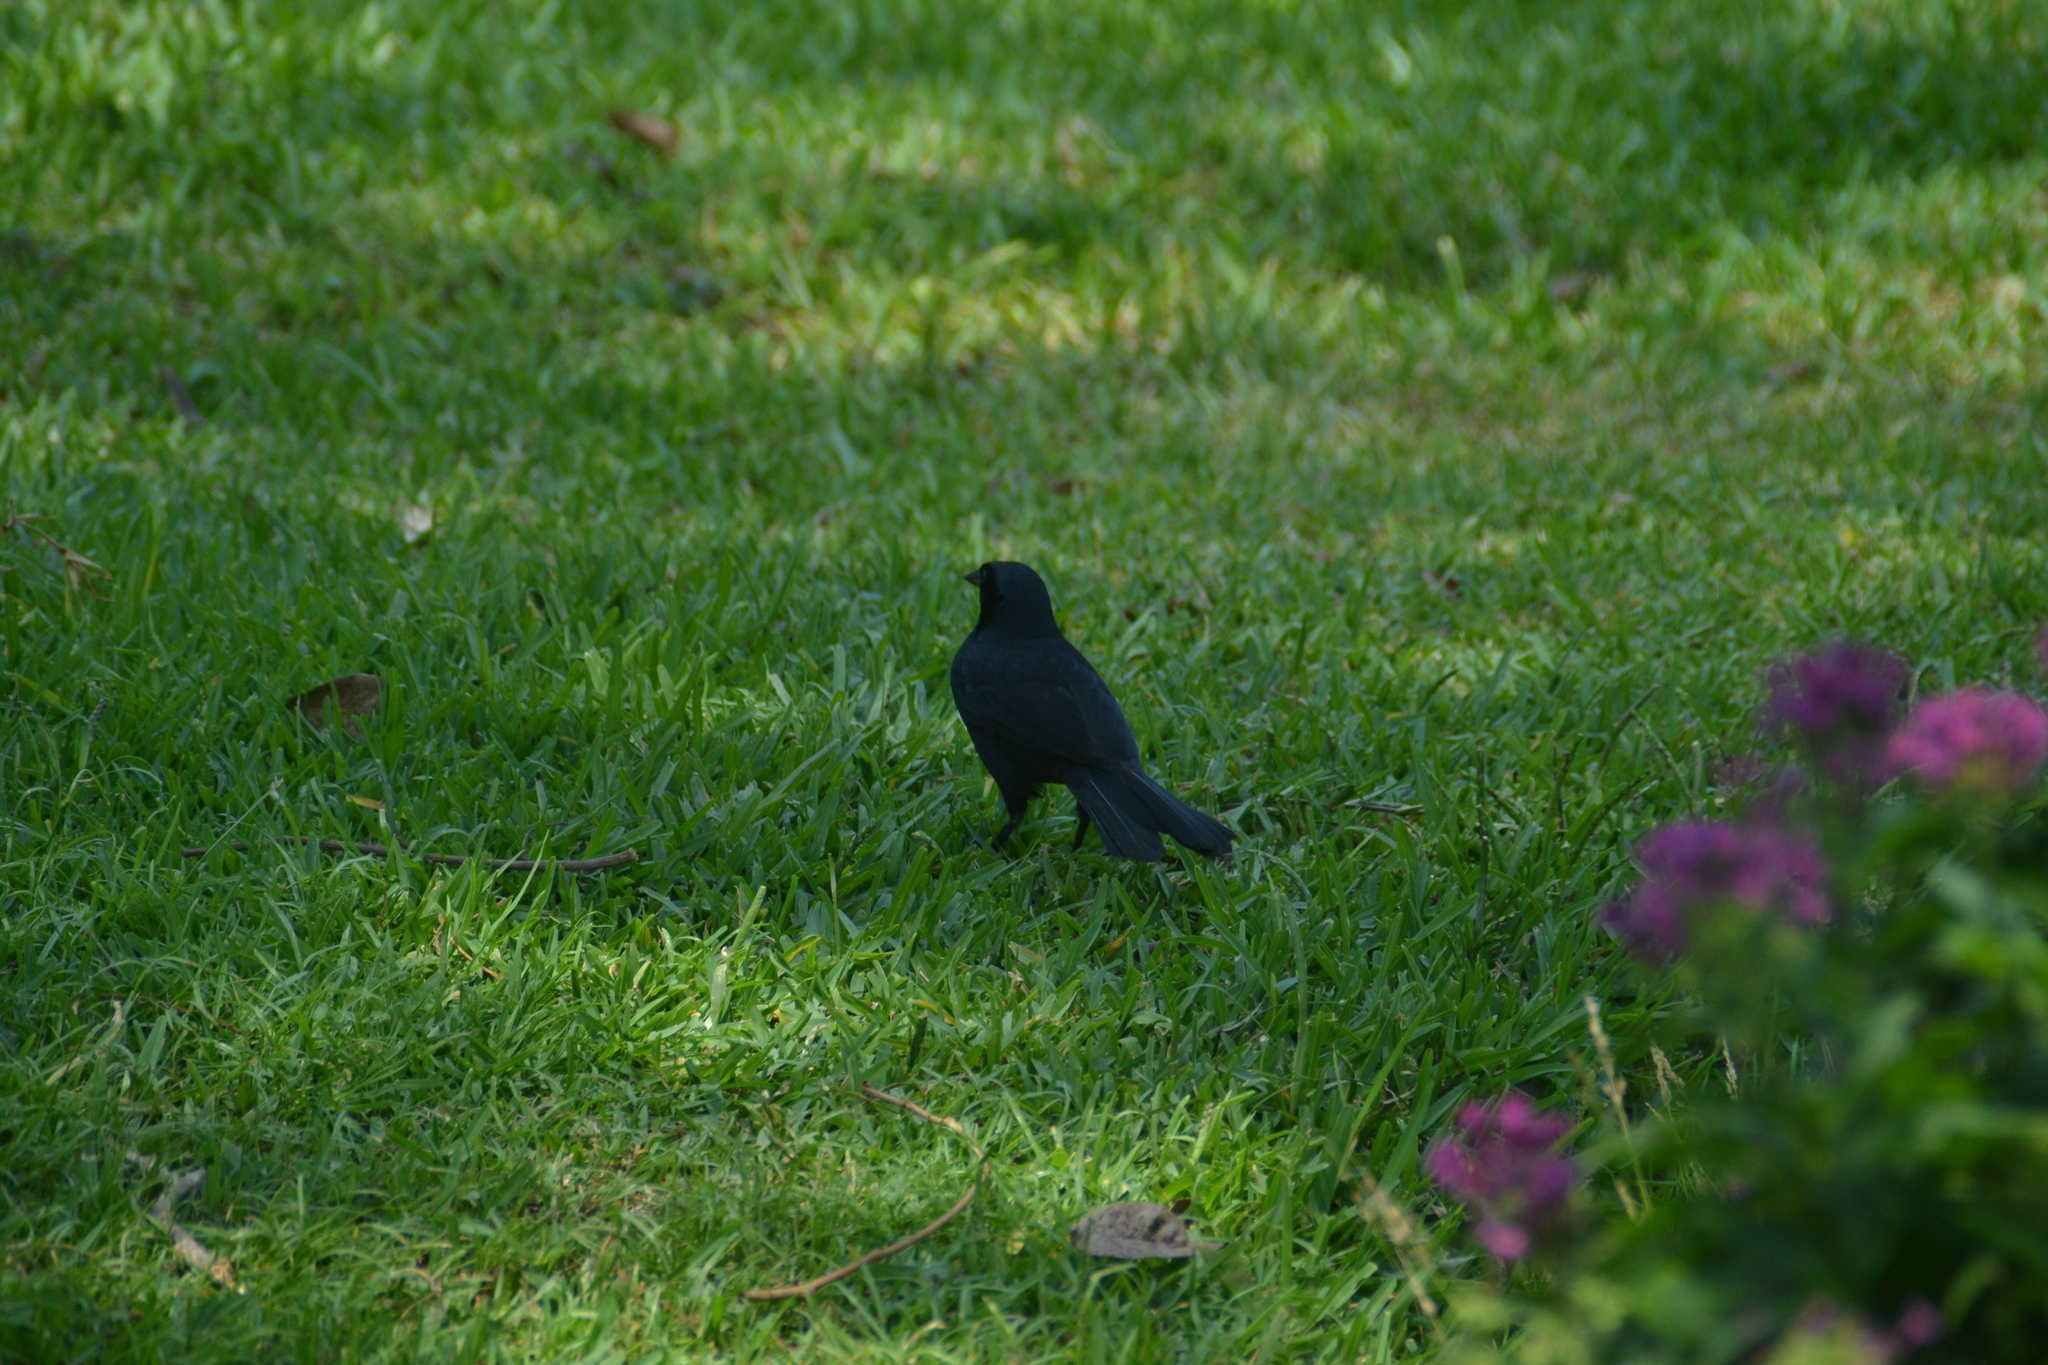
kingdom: Animalia
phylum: Chordata
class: Aves
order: Passeriformes
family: Icteridae
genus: Dives
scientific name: Dives warczewiczi
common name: Scrub blackbird
